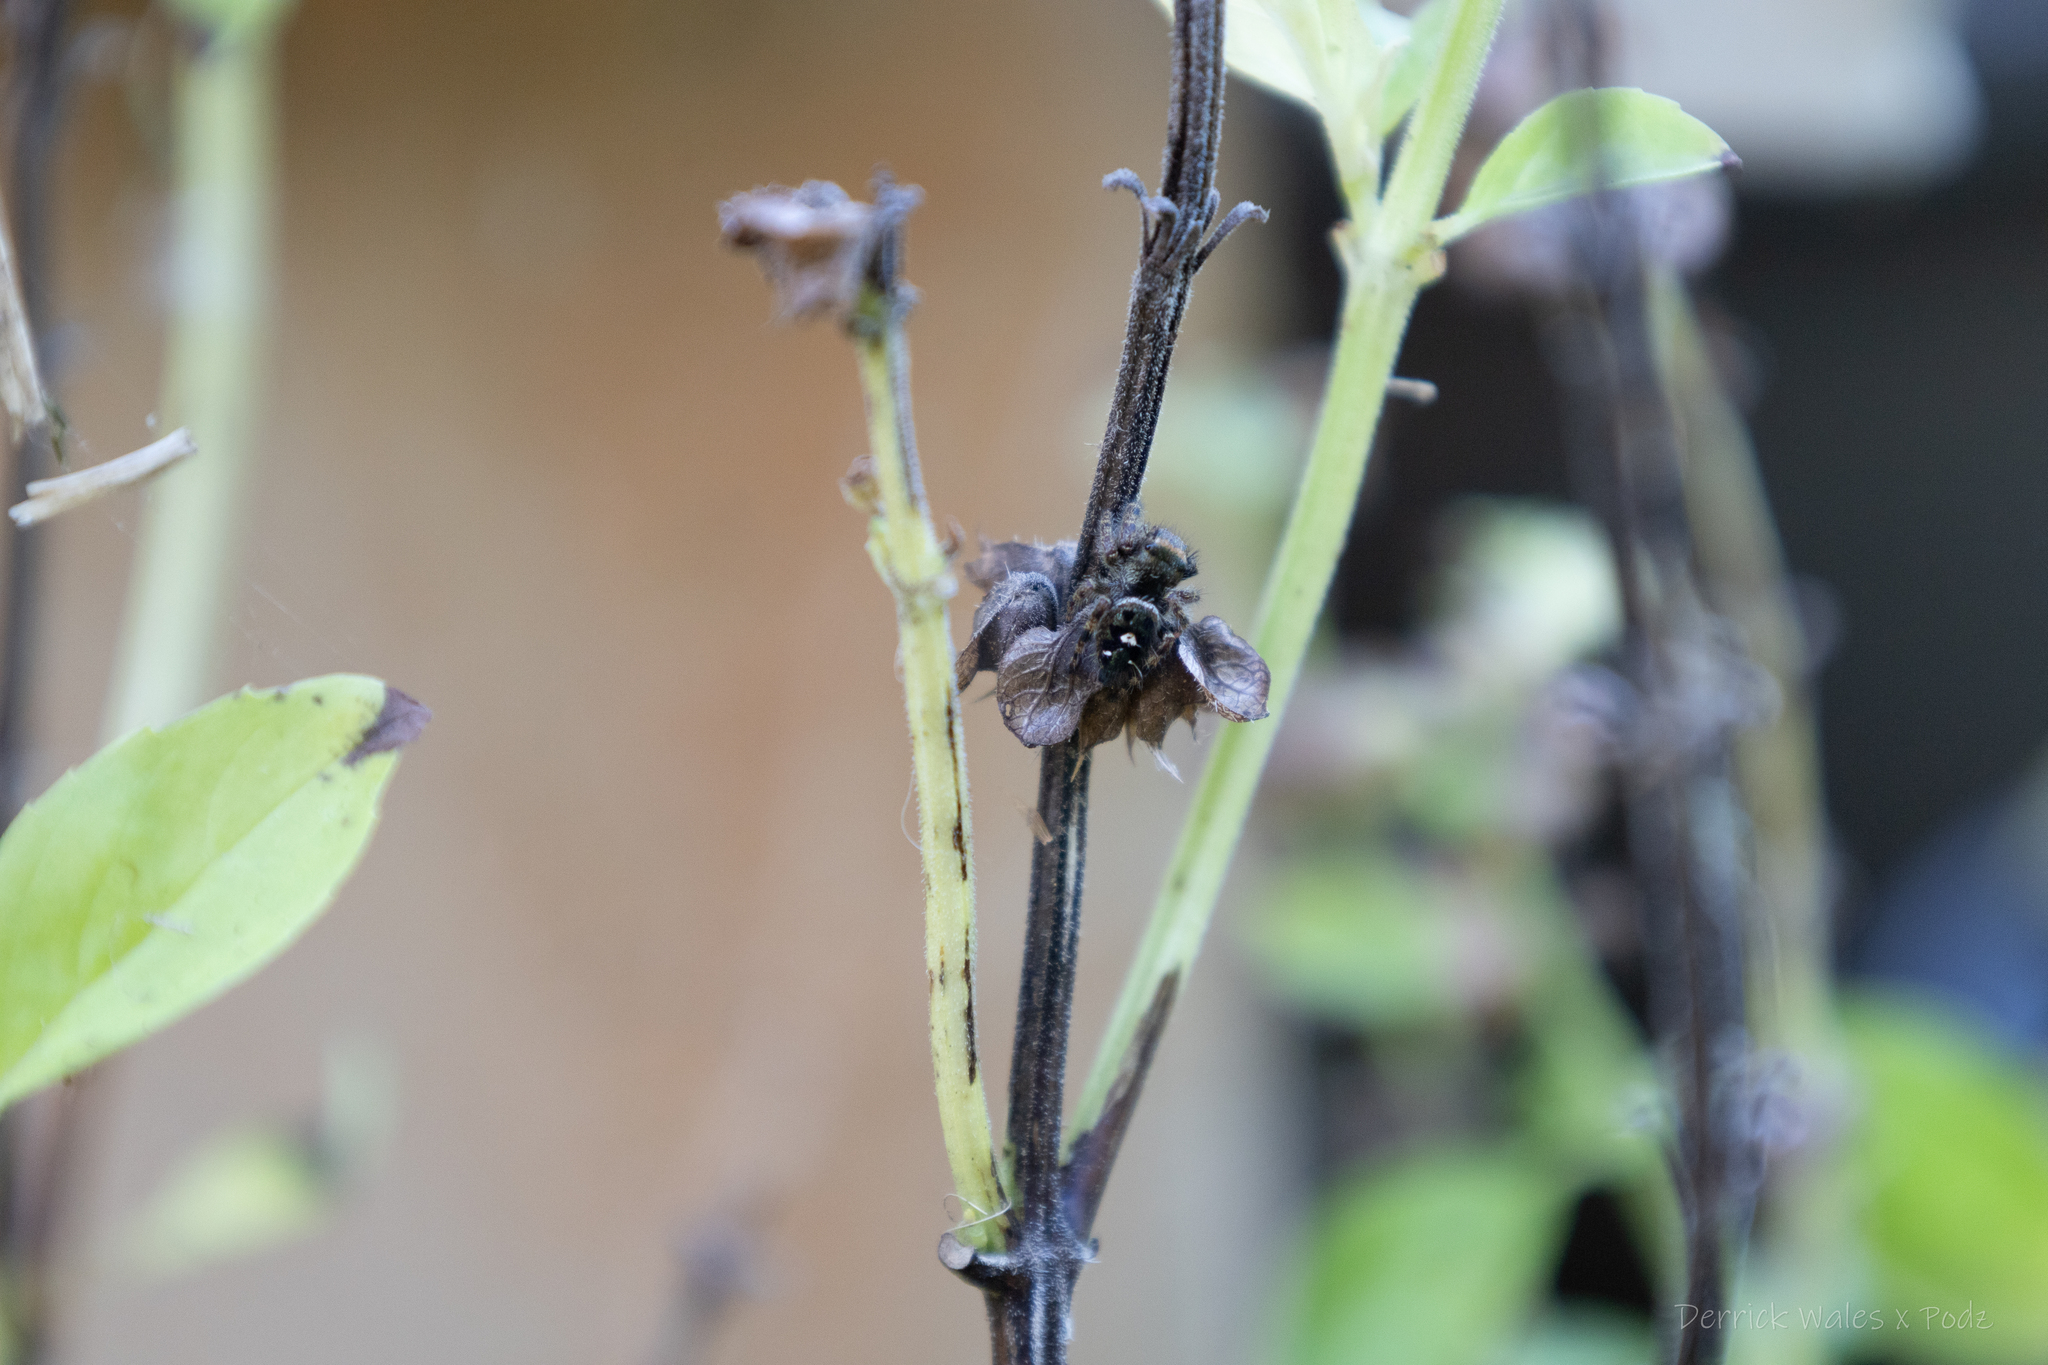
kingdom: Animalia
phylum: Arthropoda
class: Arachnida
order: Araneae
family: Salticidae
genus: Phidippus
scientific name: Phidippus audax
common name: Bold jumper
